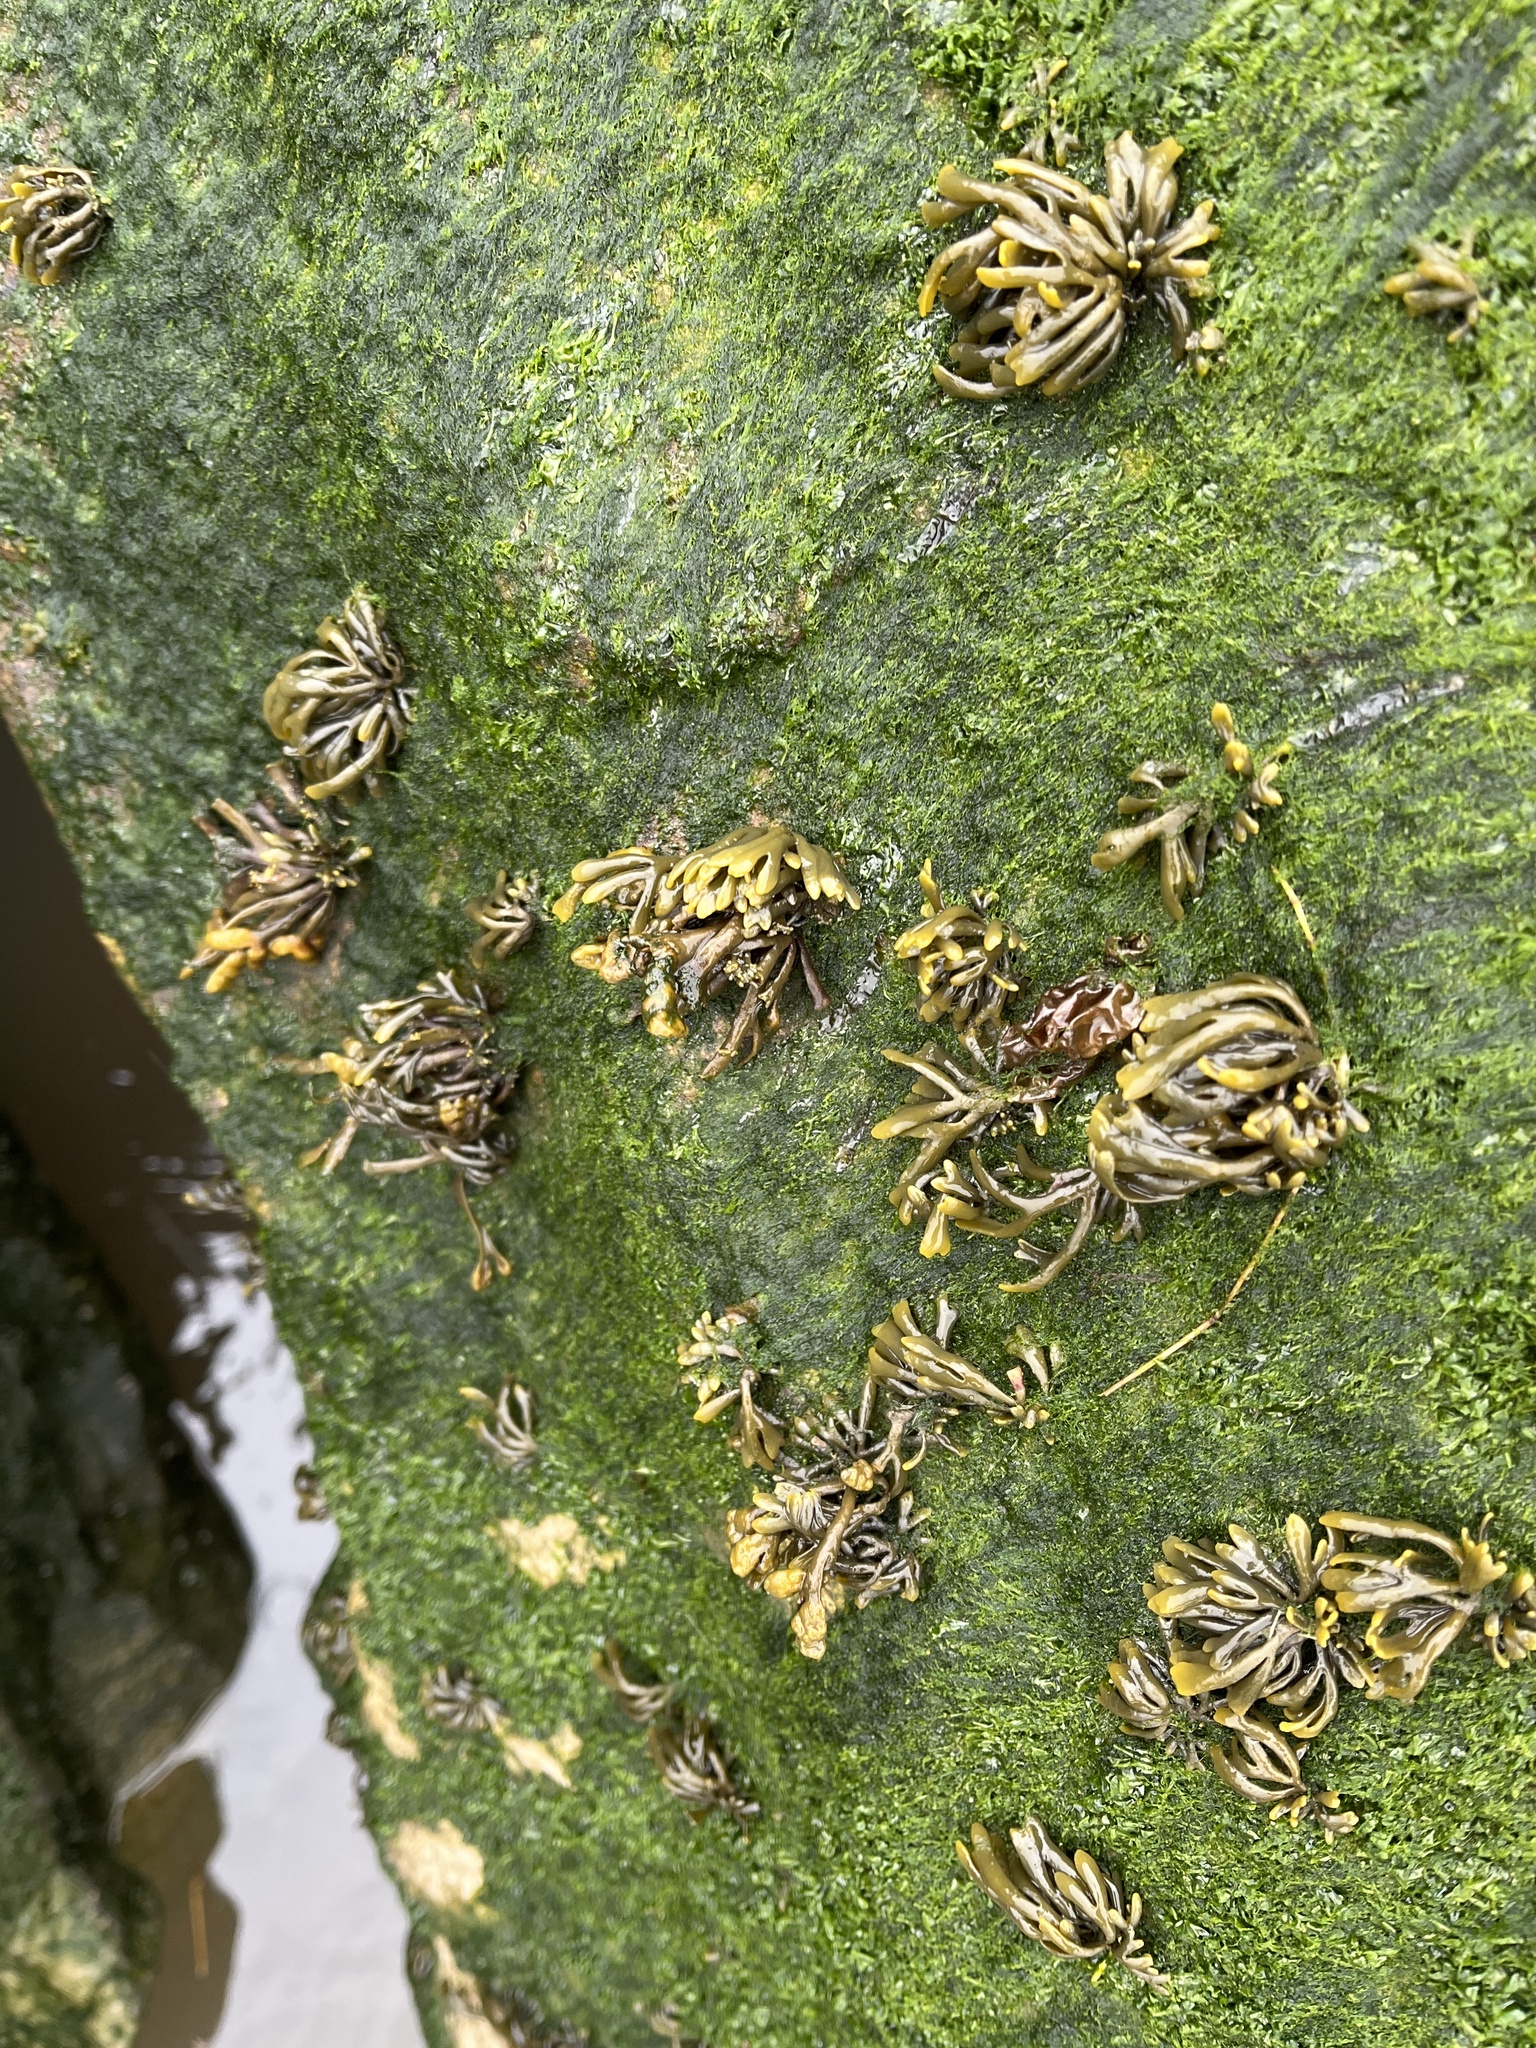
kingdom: Chromista
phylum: Ochrophyta
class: Phaeophyceae
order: Fucales
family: Fucaceae
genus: Pelvetia
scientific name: Pelvetia canaliculata
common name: Channelled wrack
